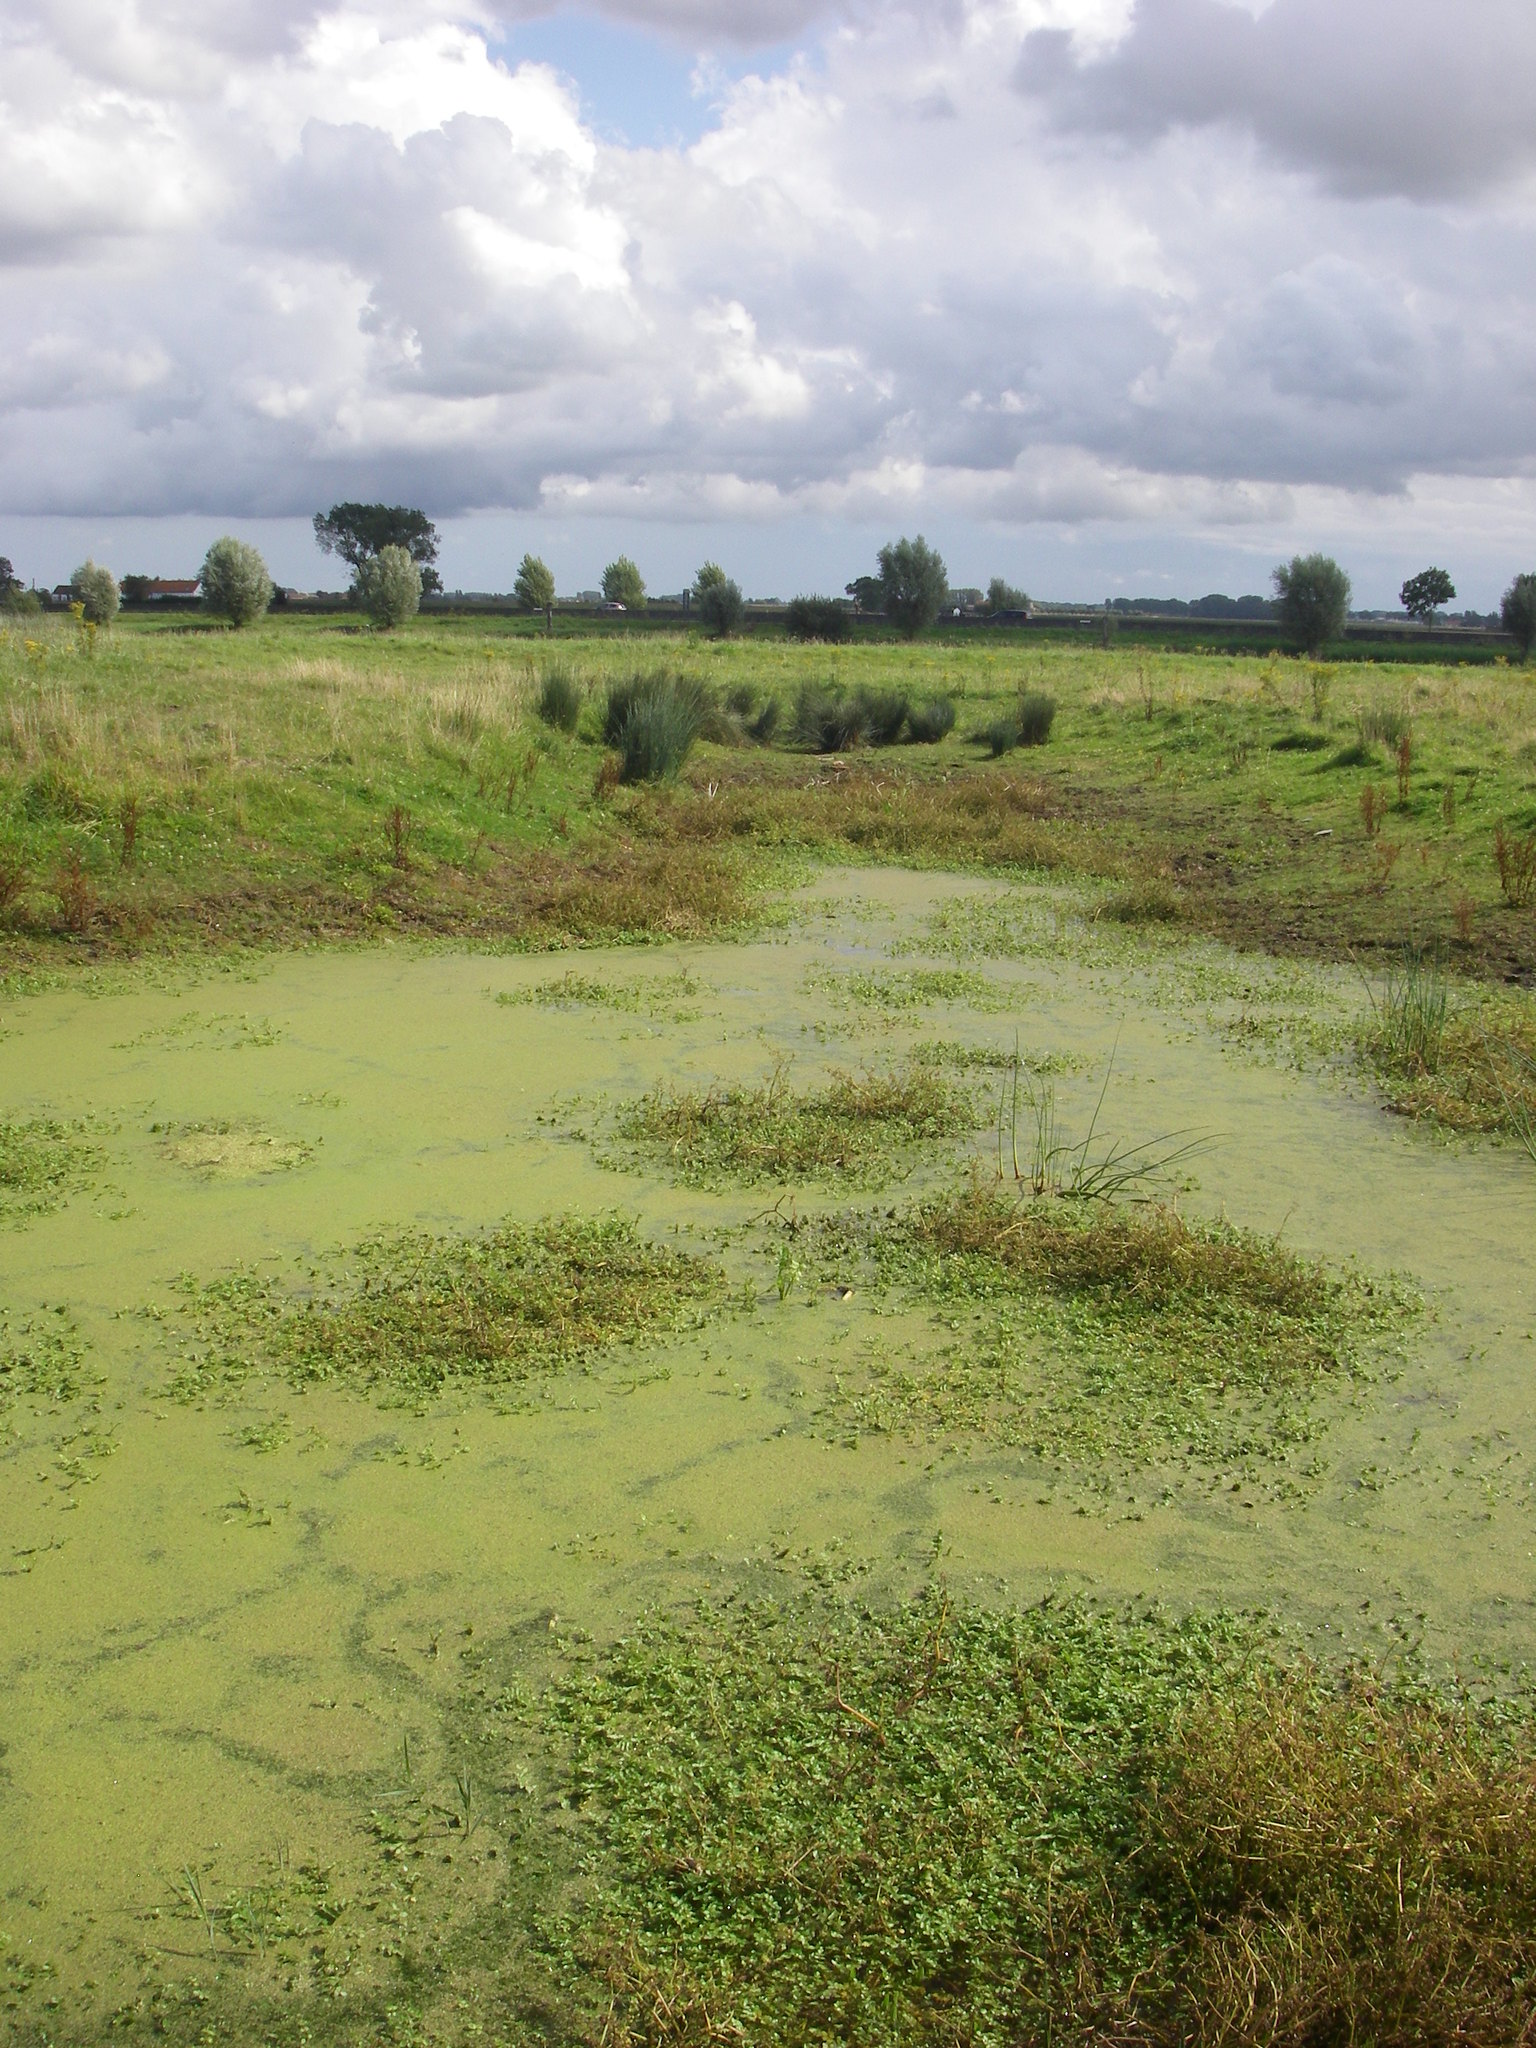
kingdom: Plantae
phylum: Tracheophyta
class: Liliopsida
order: Alismatales
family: Araceae
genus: Lemna
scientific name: Lemna minuta
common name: Least duckweed
